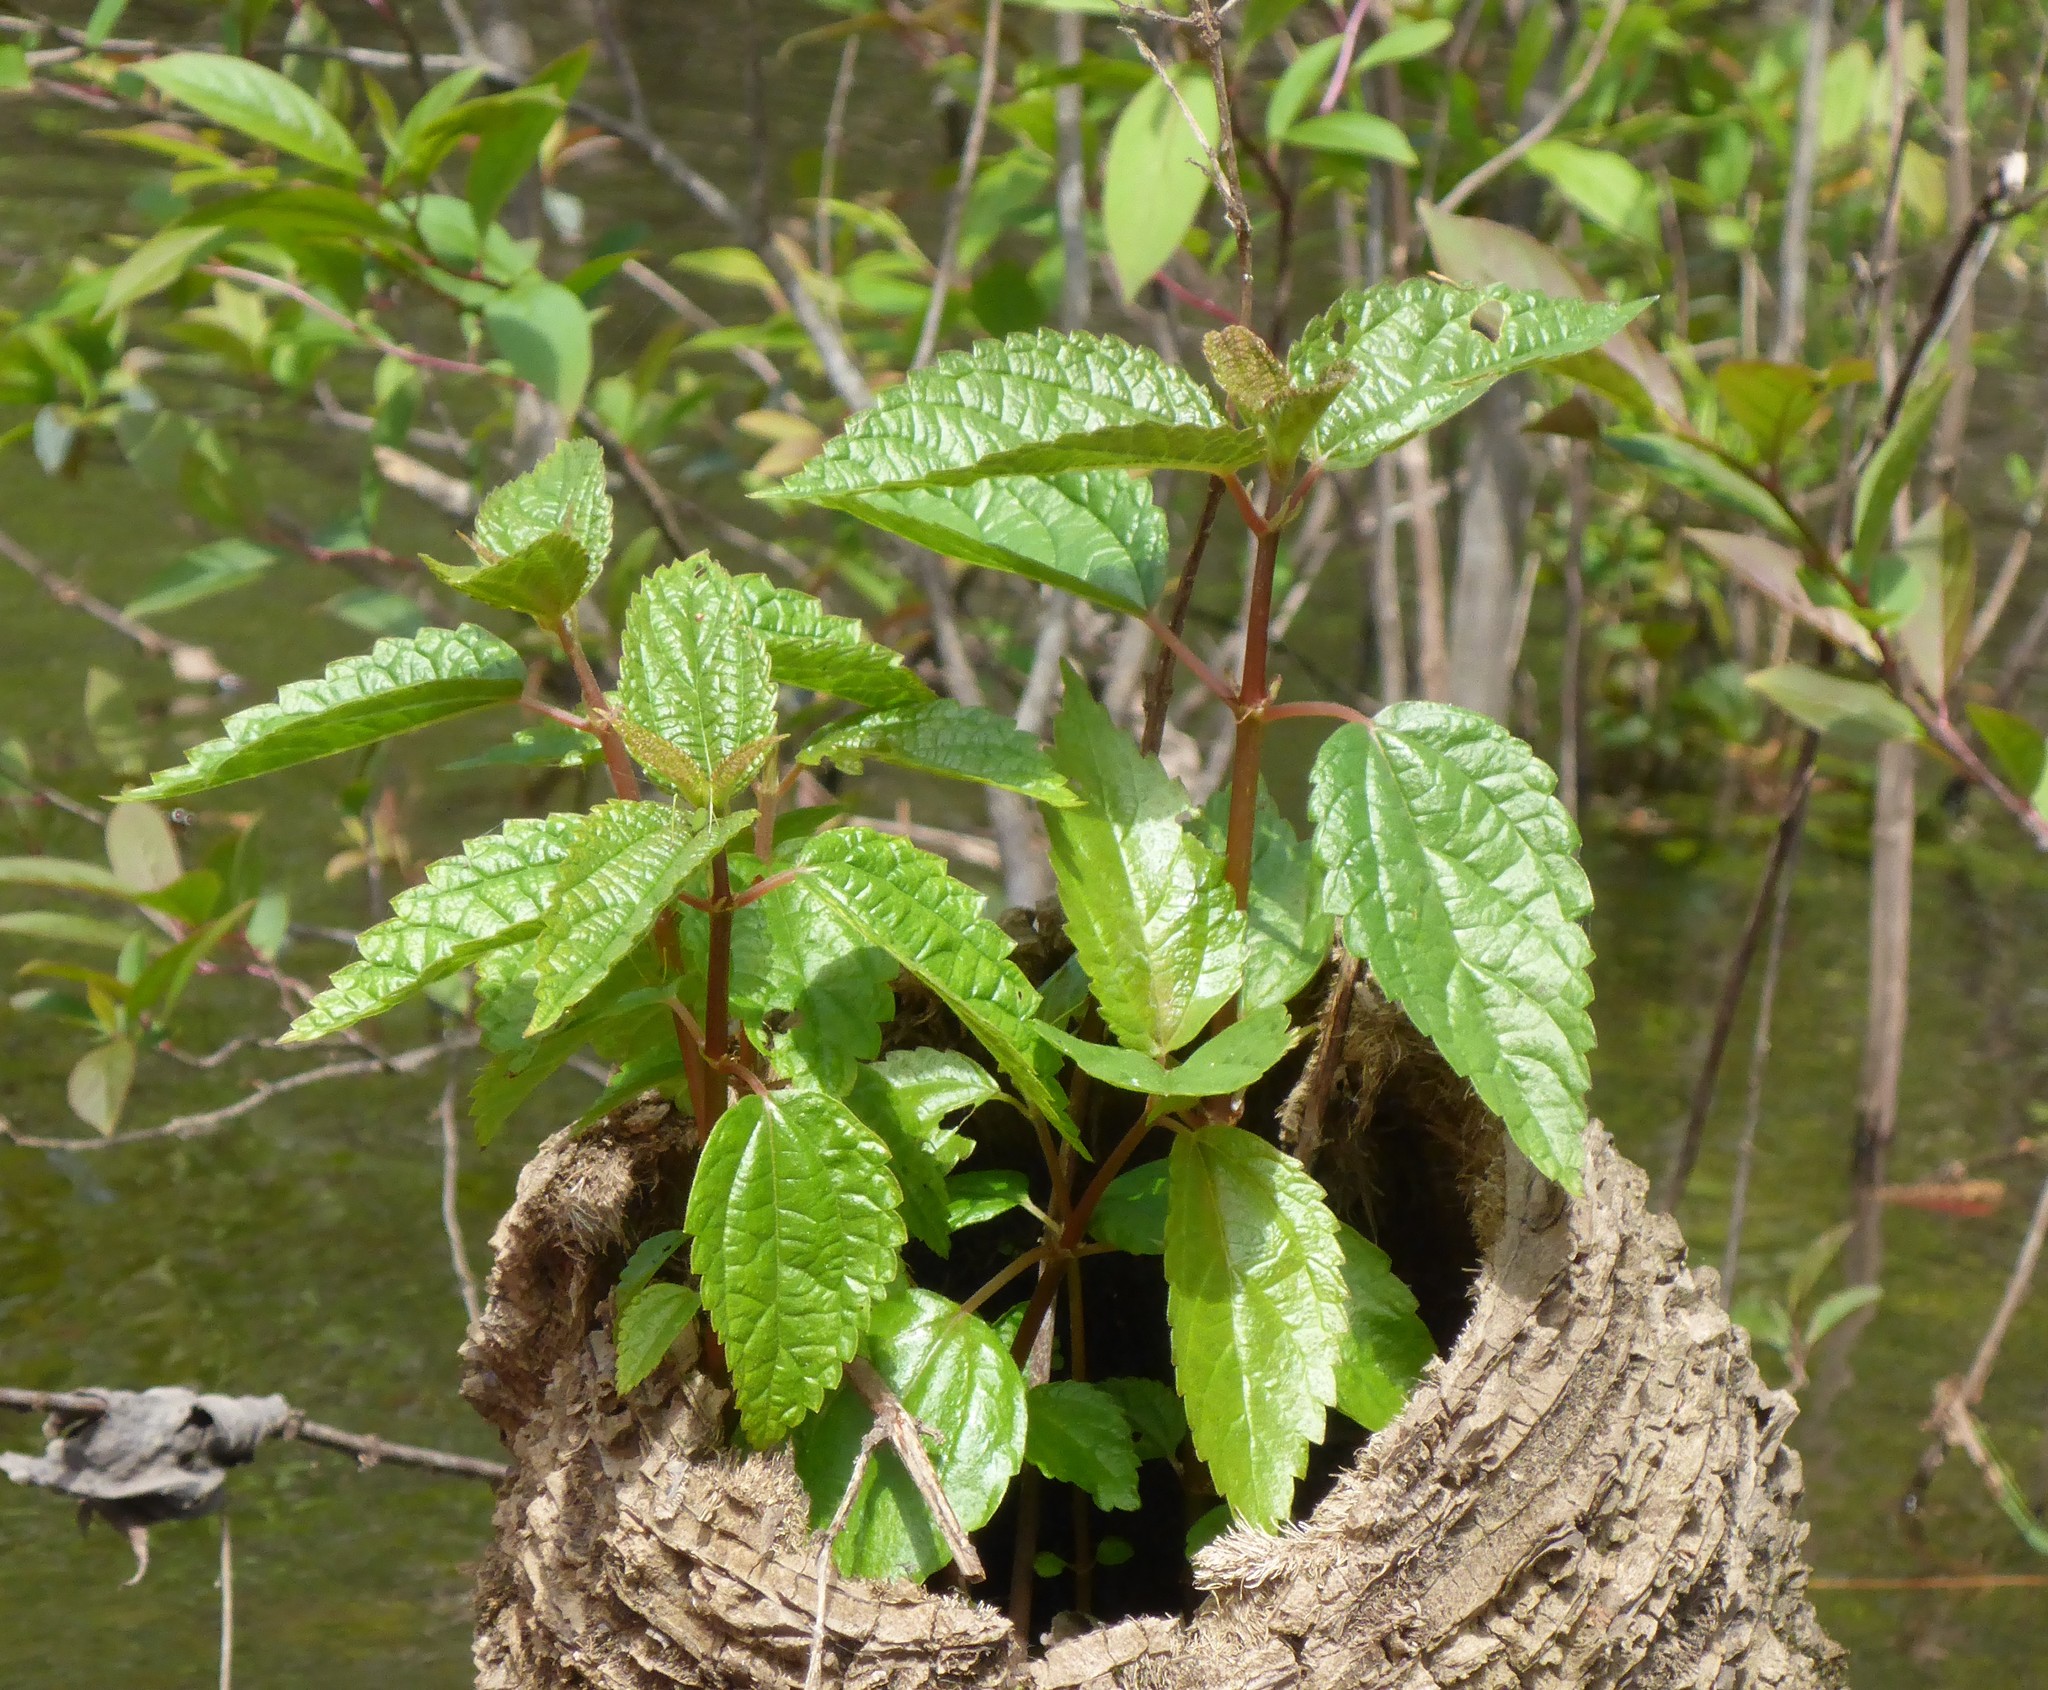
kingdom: Plantae
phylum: Tracheophyta
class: Magnoliopsida
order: Rosales
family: Urticaceae
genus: Boehmeria
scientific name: Boehmeria cylindrica
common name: Bog-hemp
